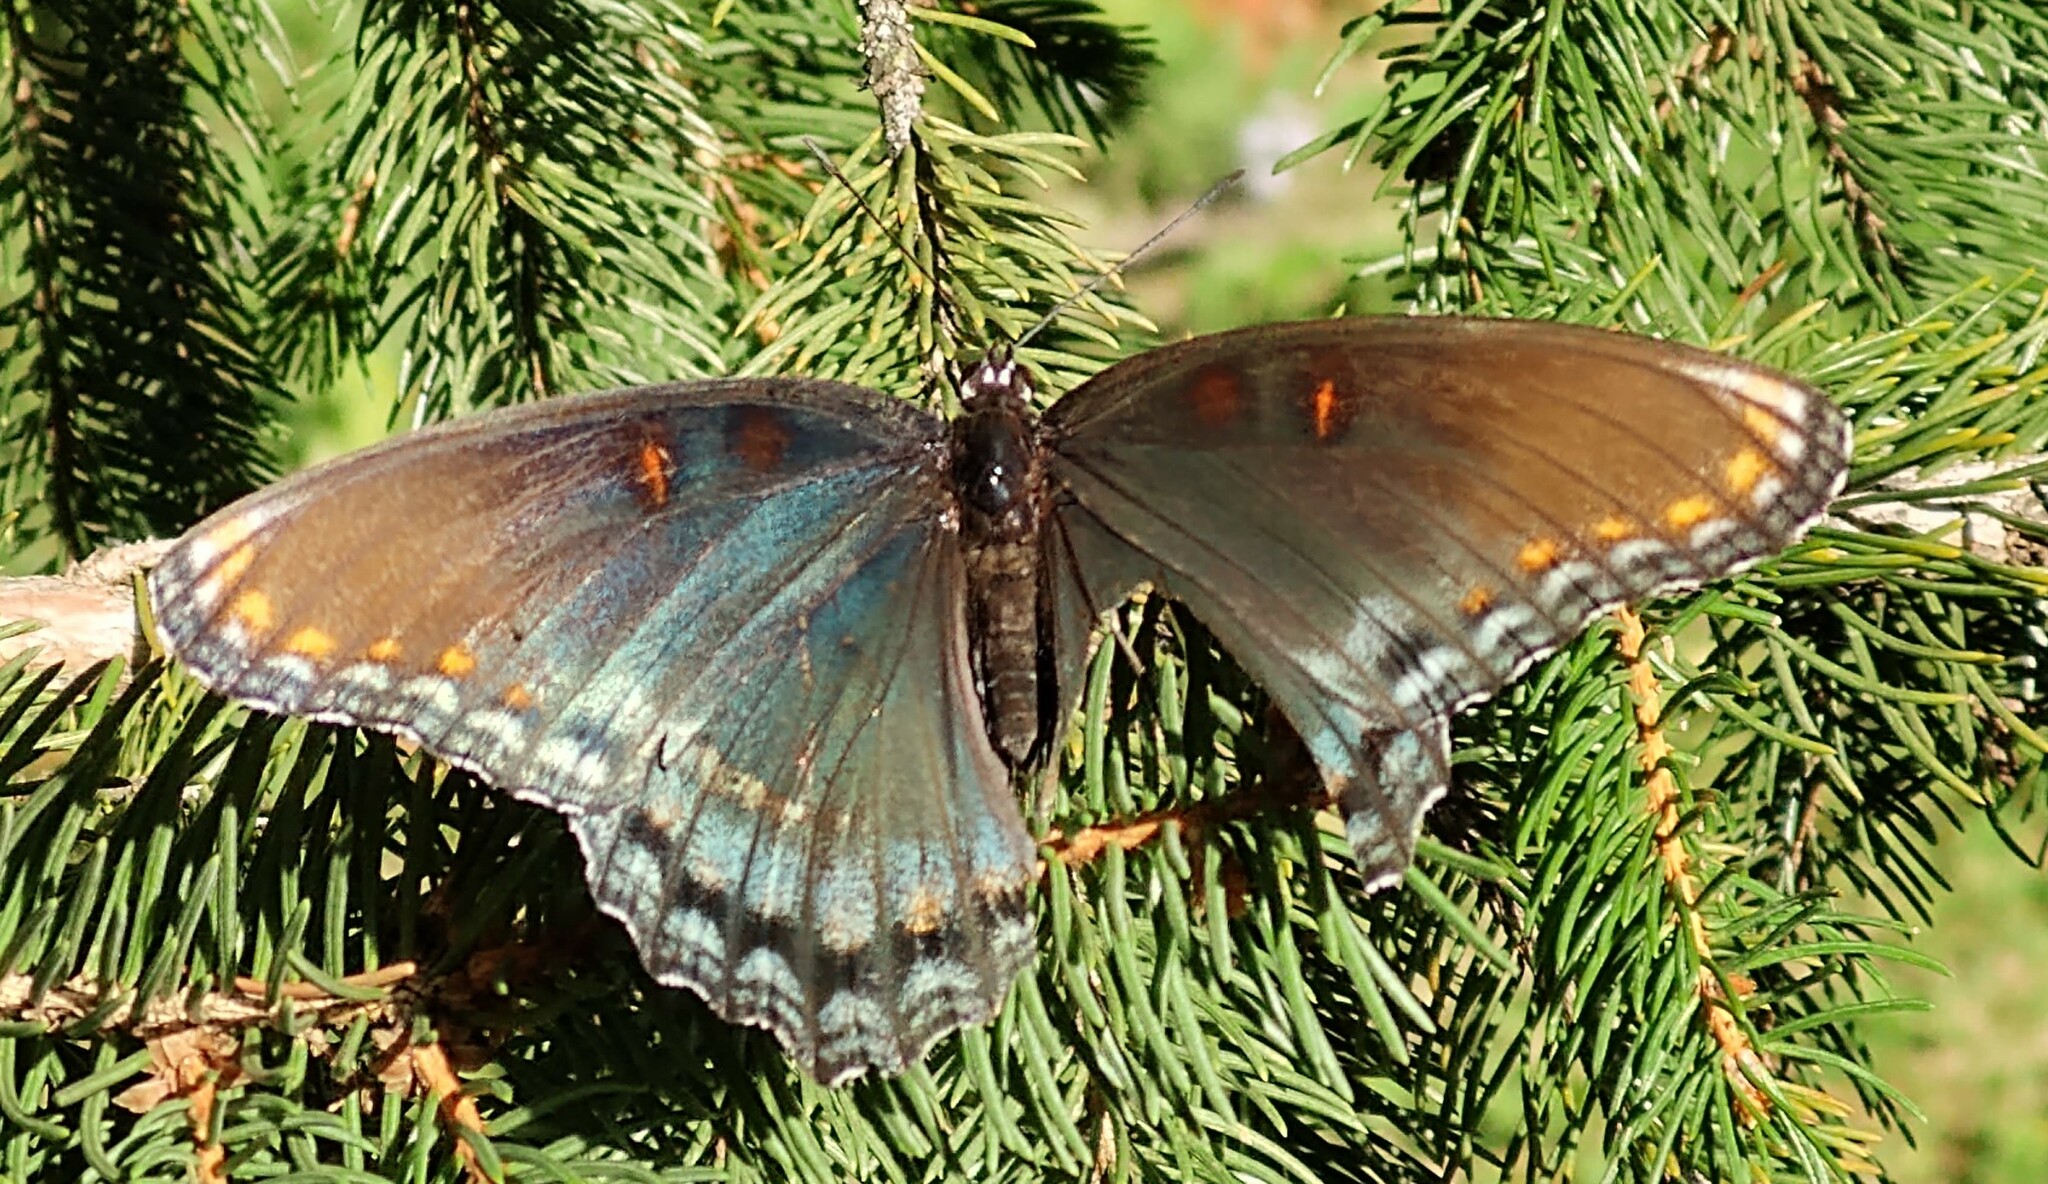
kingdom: Animalia
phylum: Arthropoda
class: Insecta
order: Lepidoptera
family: Nymphalidae
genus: Limenitis
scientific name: Limenitis astyanax
